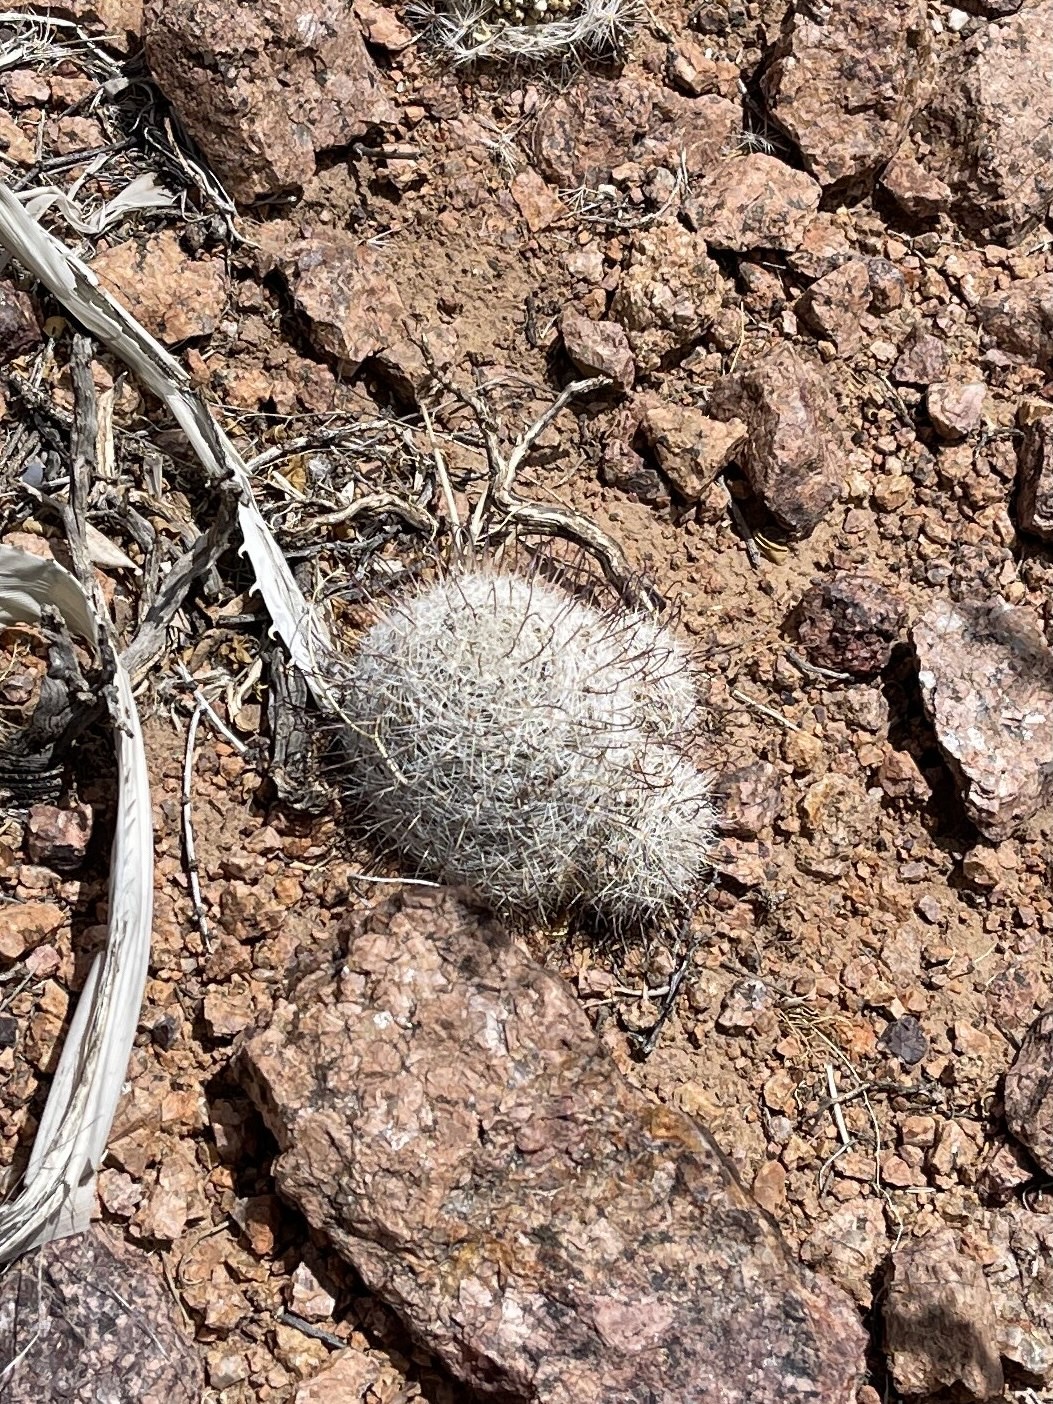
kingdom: Plantae
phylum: Tracheophyta
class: Magnoliopsida
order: Caryophyllales
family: Cactaceae
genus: Cochemiea
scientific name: Cochemiea grahamii
